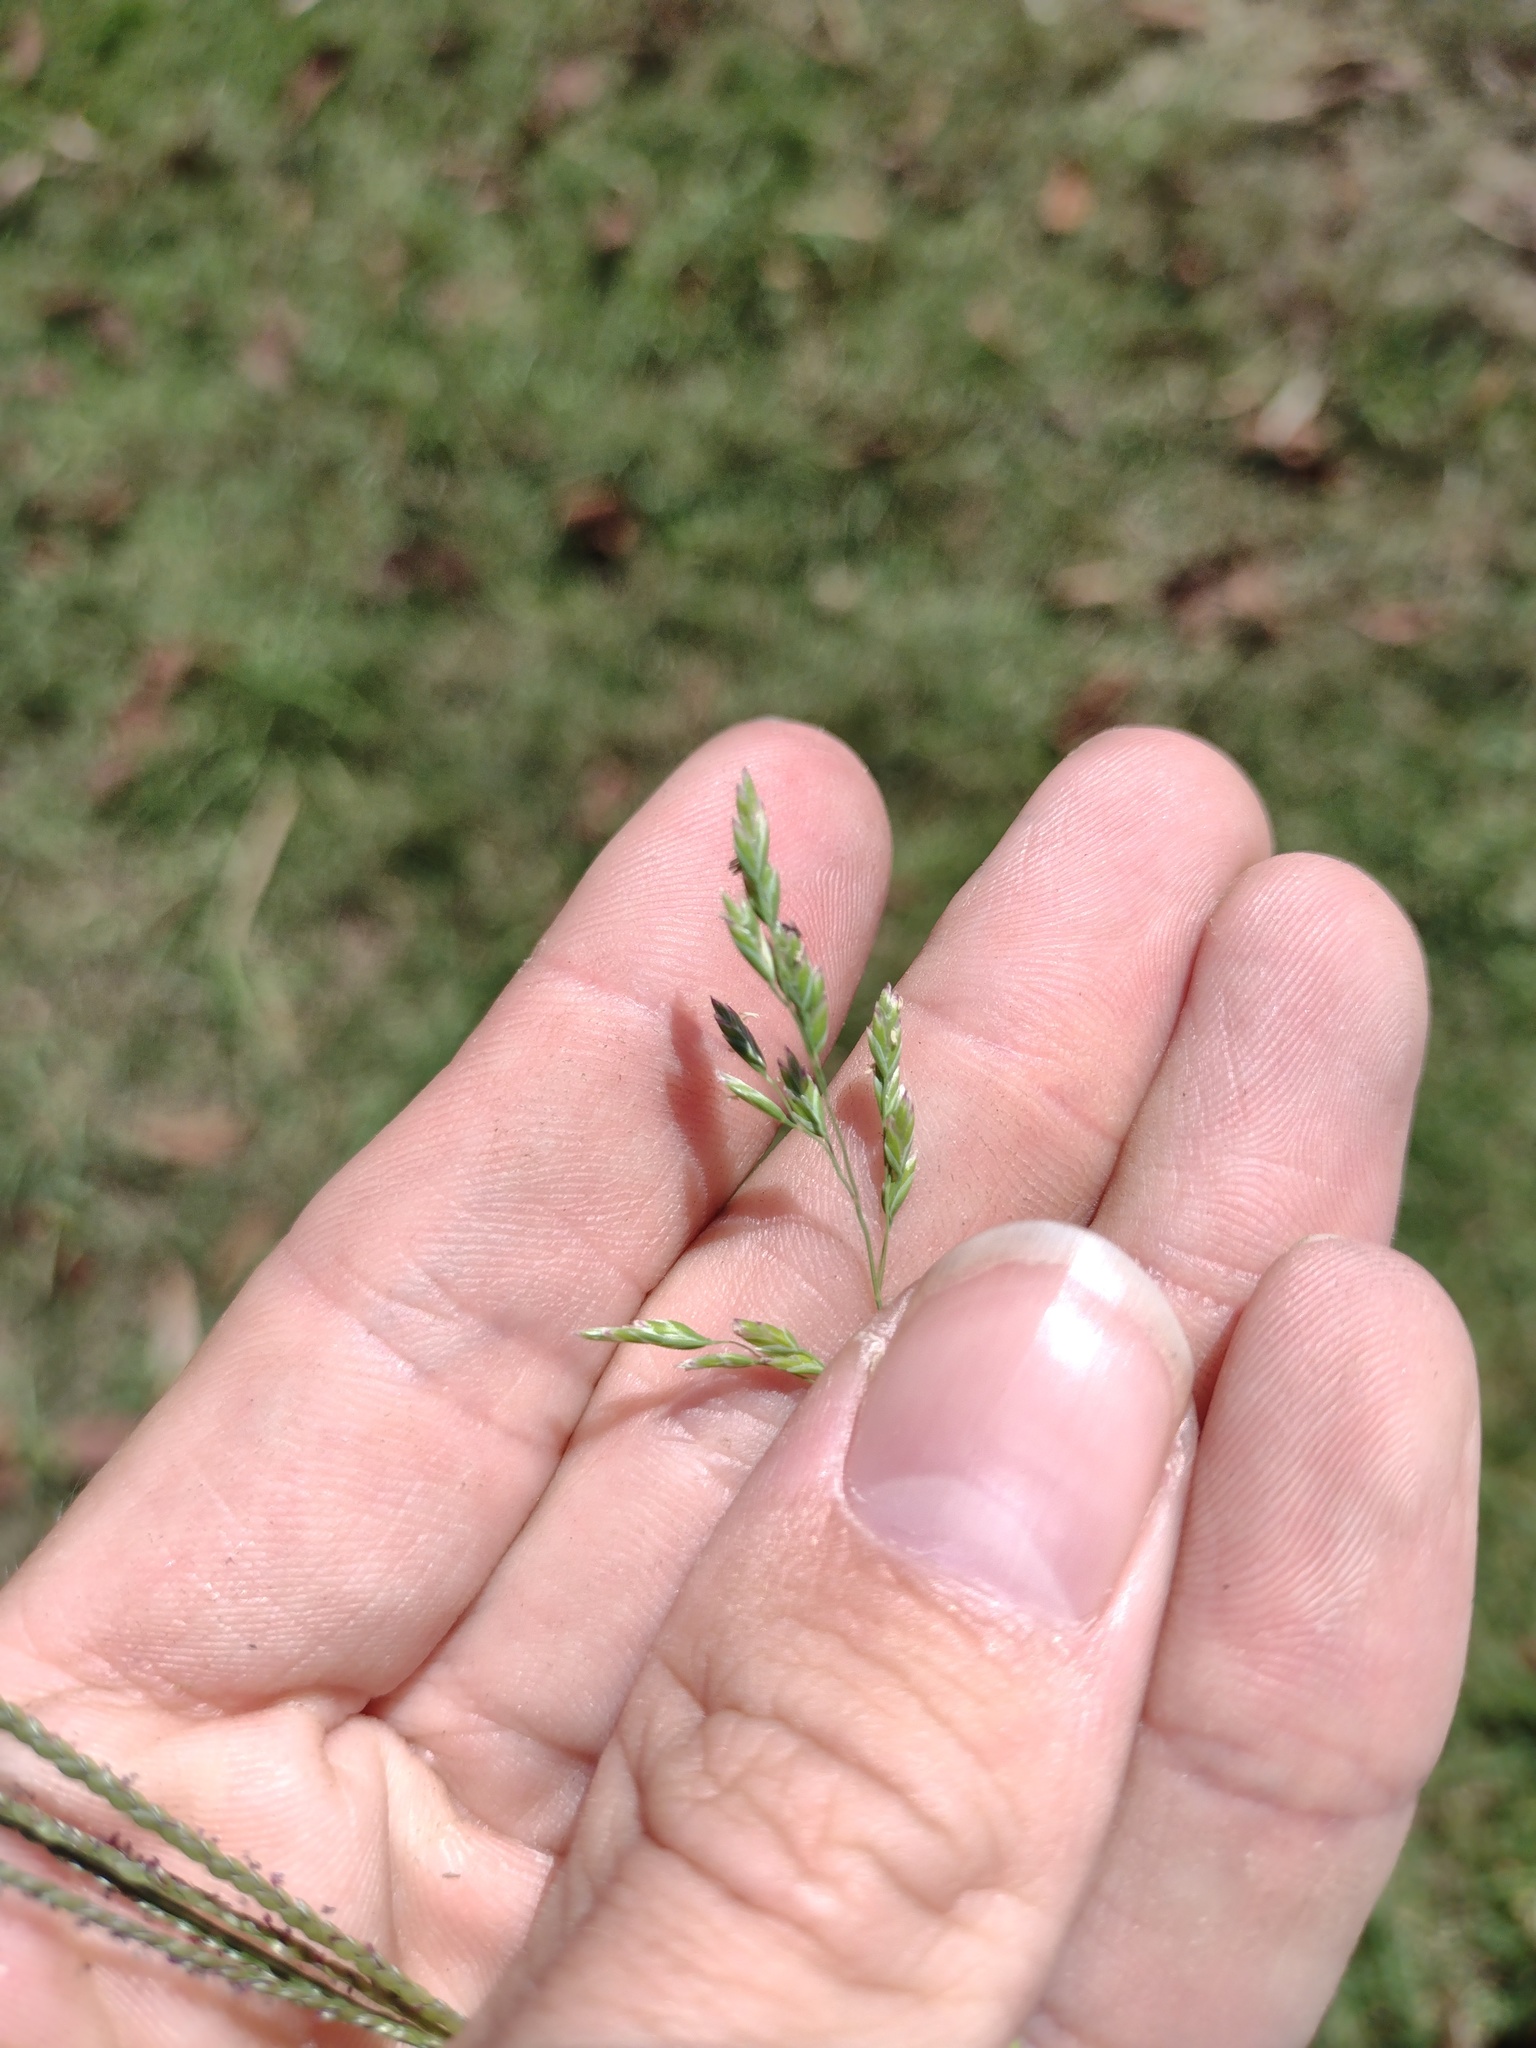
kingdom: Plantae
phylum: Tracheophyta
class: Liliopsida
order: Poales
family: Poaceae
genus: Poa
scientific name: Poa annua
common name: Annual bluegrass
